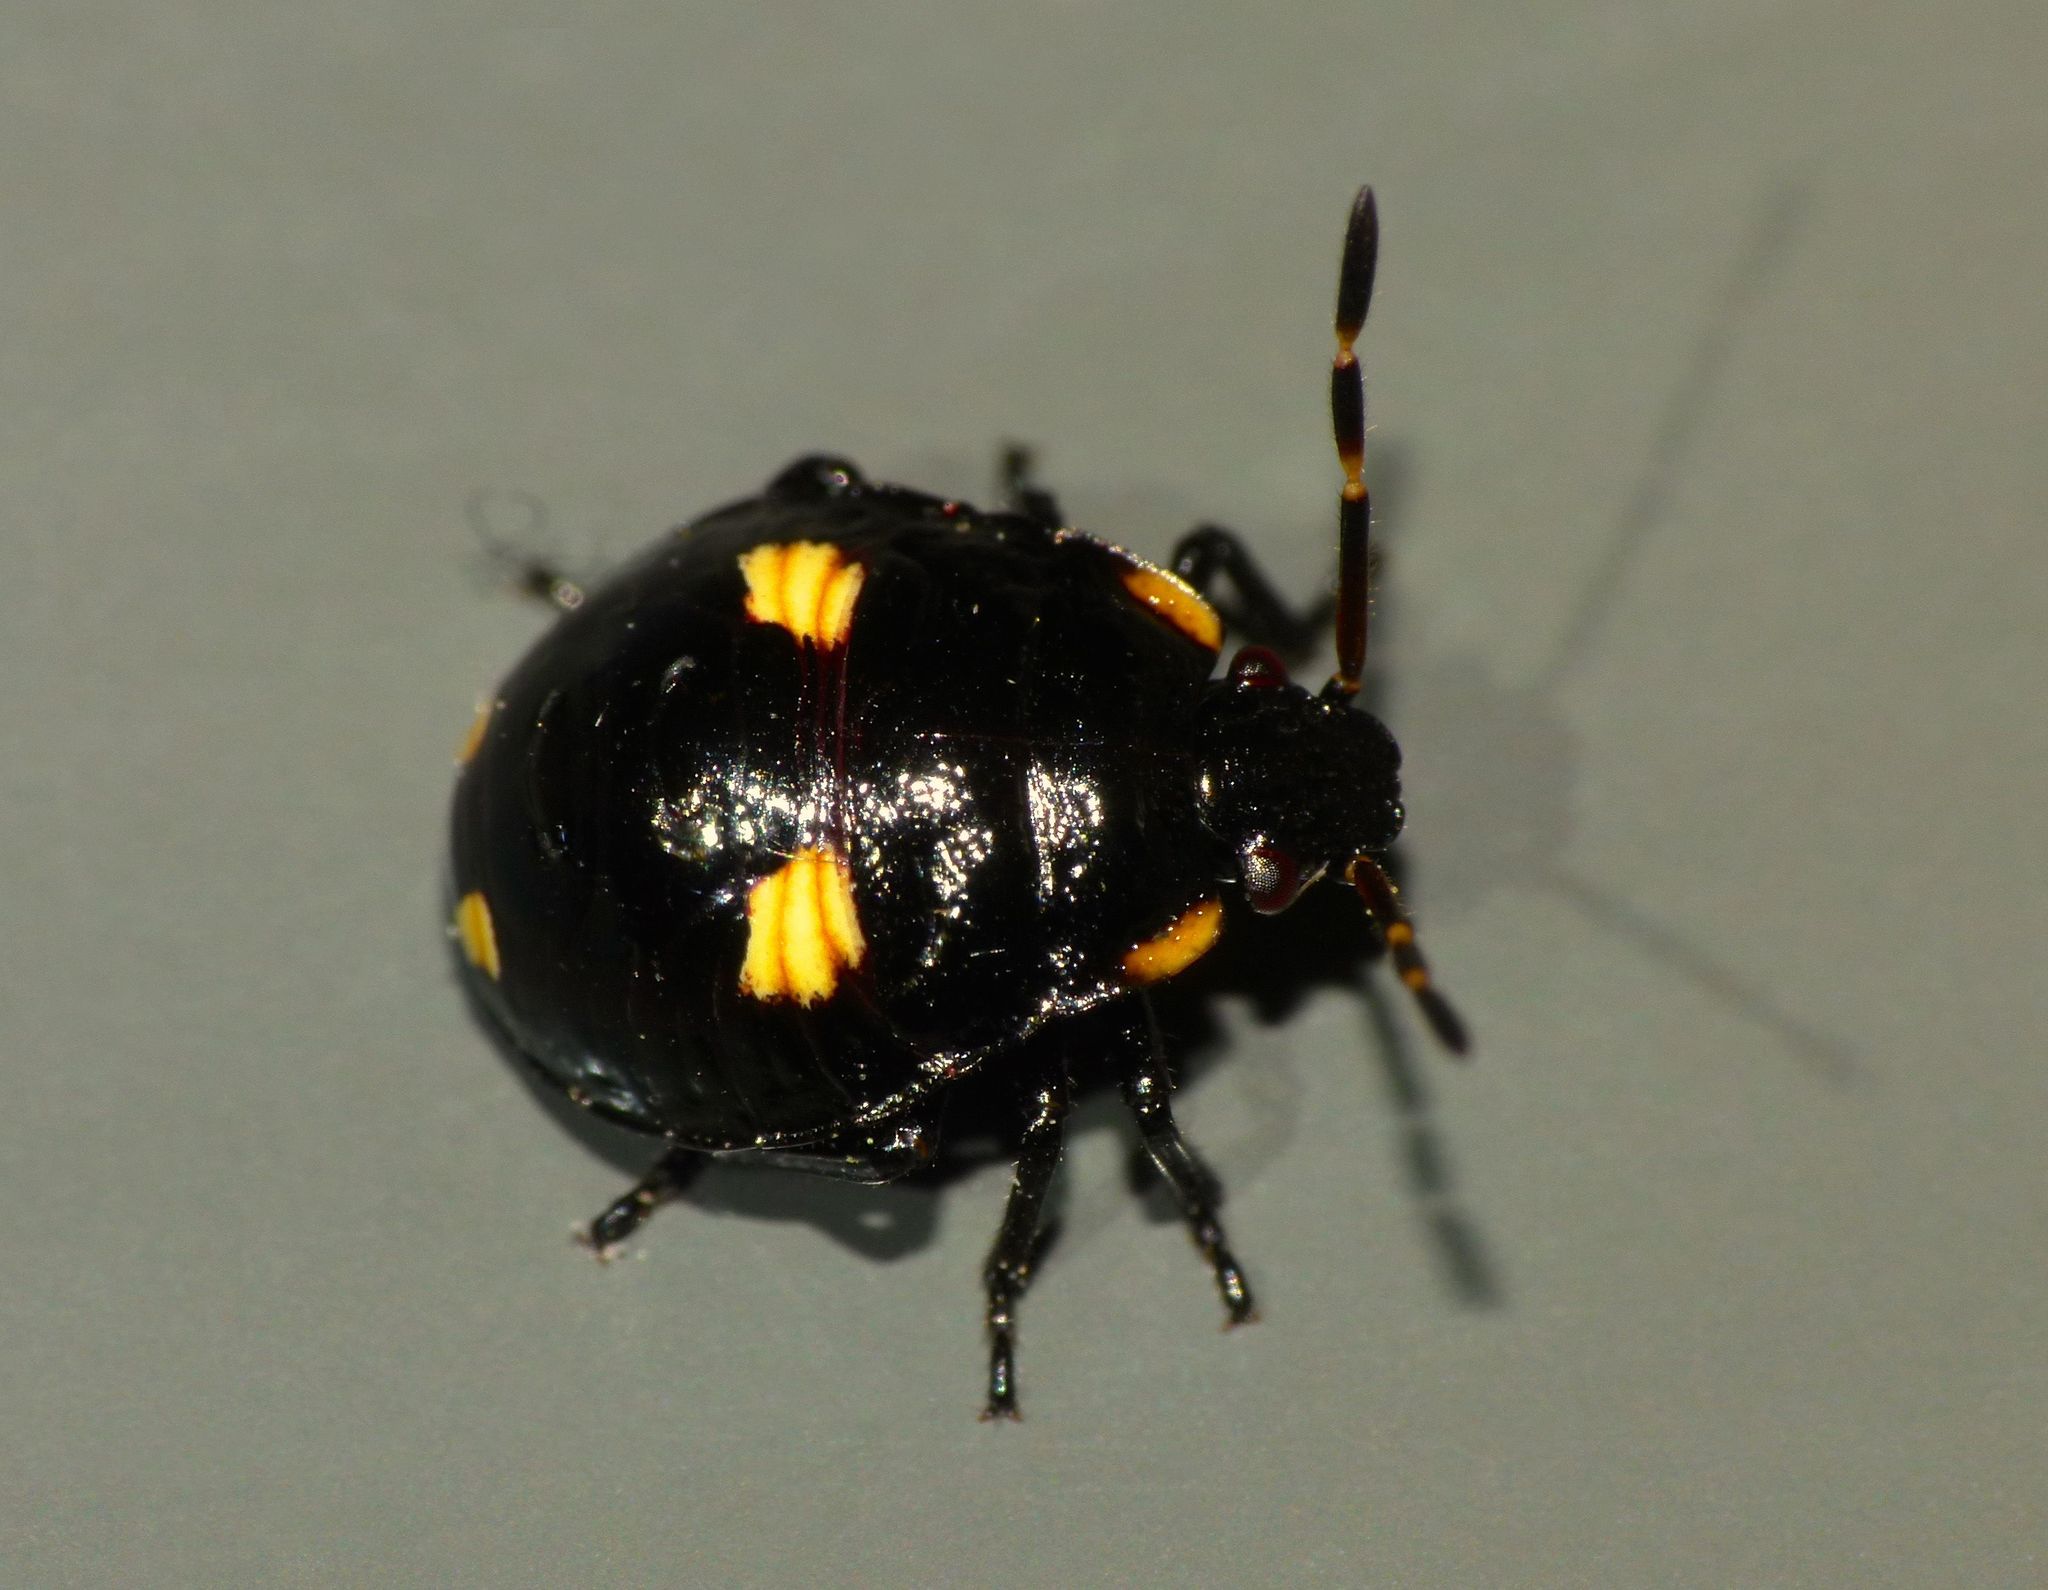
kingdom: Animalia
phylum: Arthropoda
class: Insecta
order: Hemiptera
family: Pentatomidae
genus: Cermatulus
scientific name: Cermatulus nasalis
